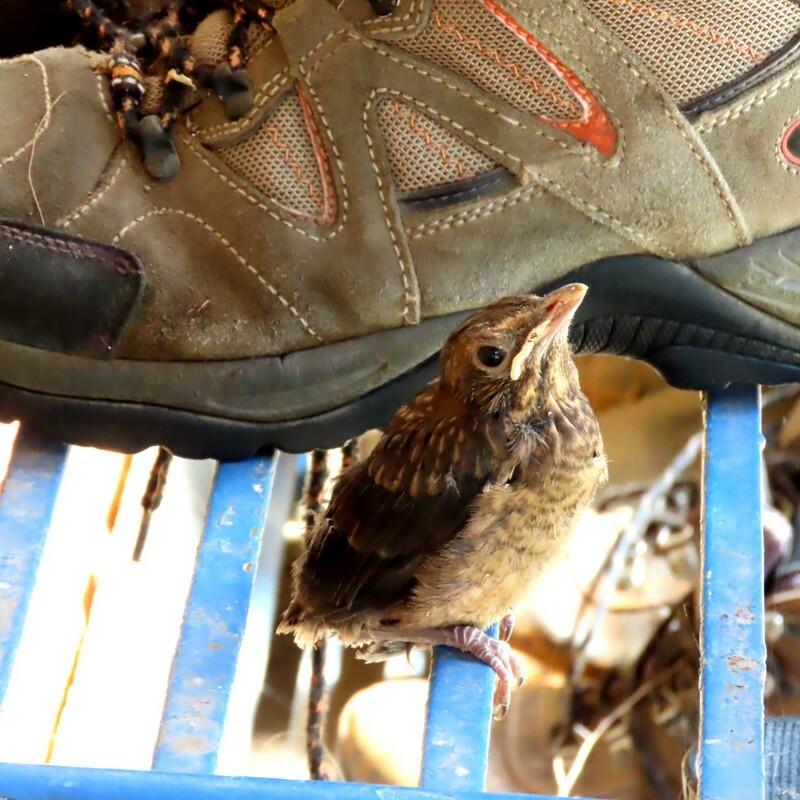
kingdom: Animalia
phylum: Chordata
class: Aves
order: Passeriformes
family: Turdidae
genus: Turdus
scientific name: Turdus merula
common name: Common blackbird
